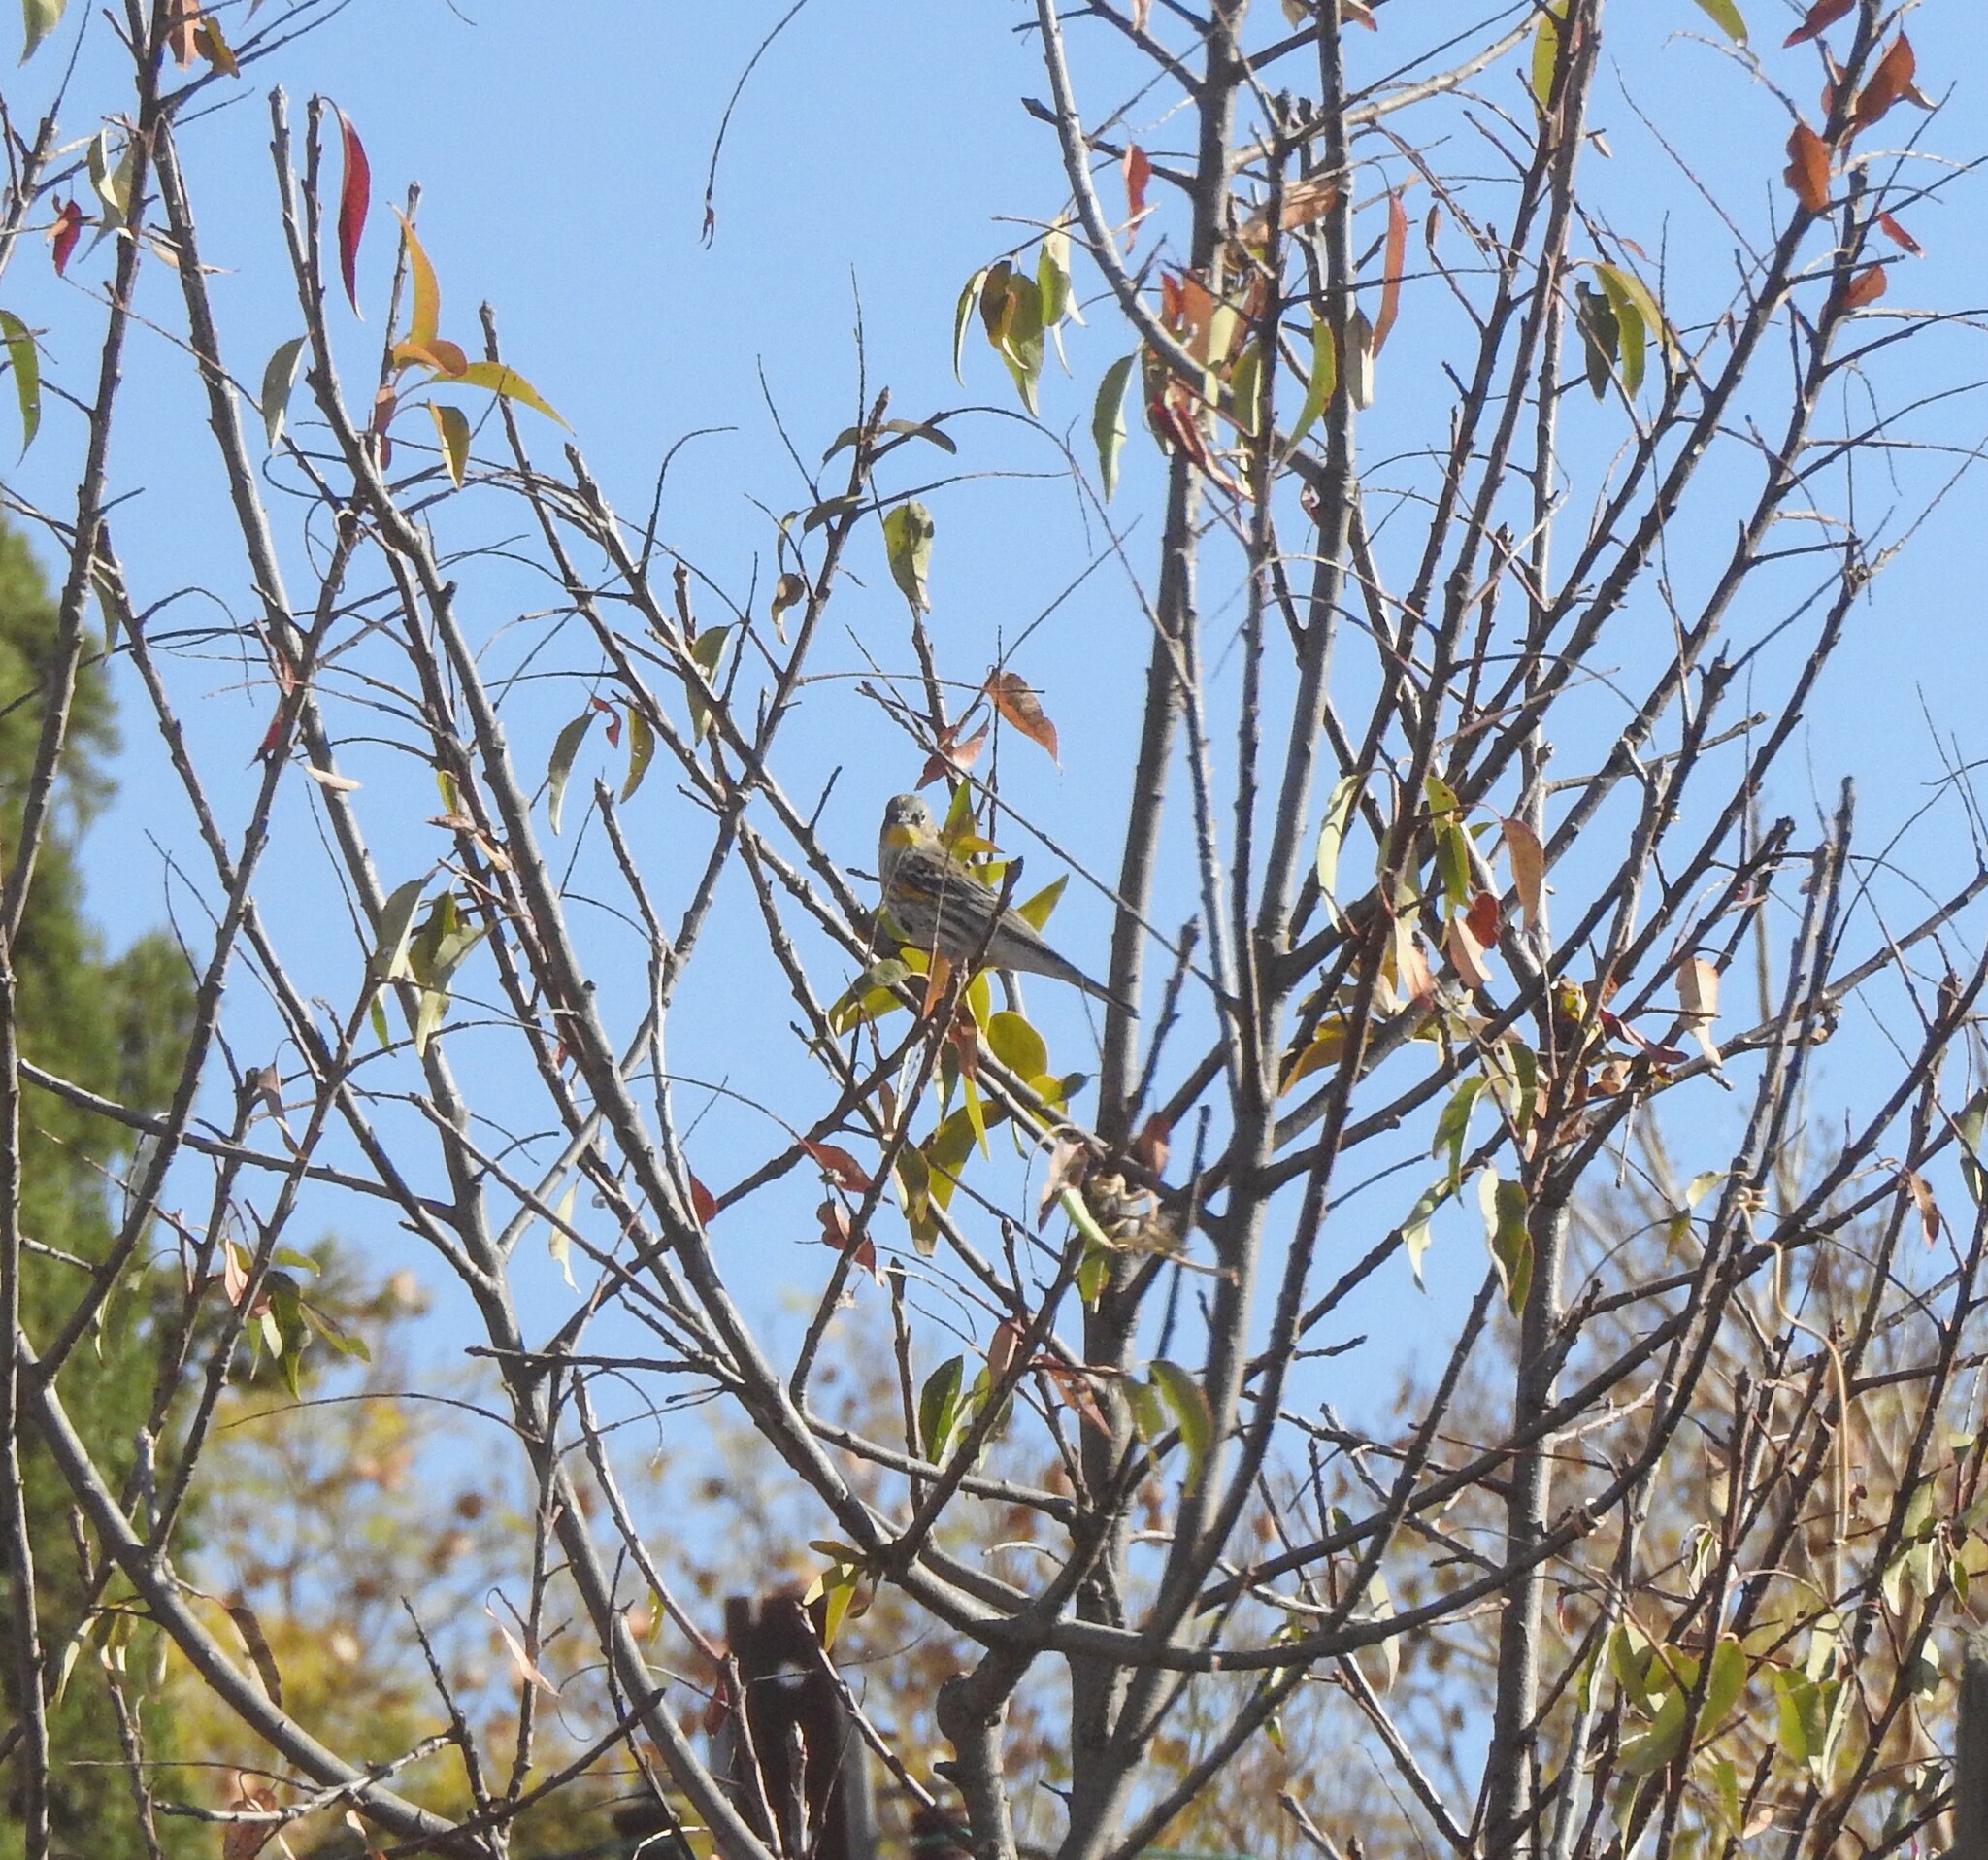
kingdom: Animalia
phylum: Chordata
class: Aves
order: Passeriformes
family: Parulidae
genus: Setophaga
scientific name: Setophaga coronata
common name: Myrtle warbler
